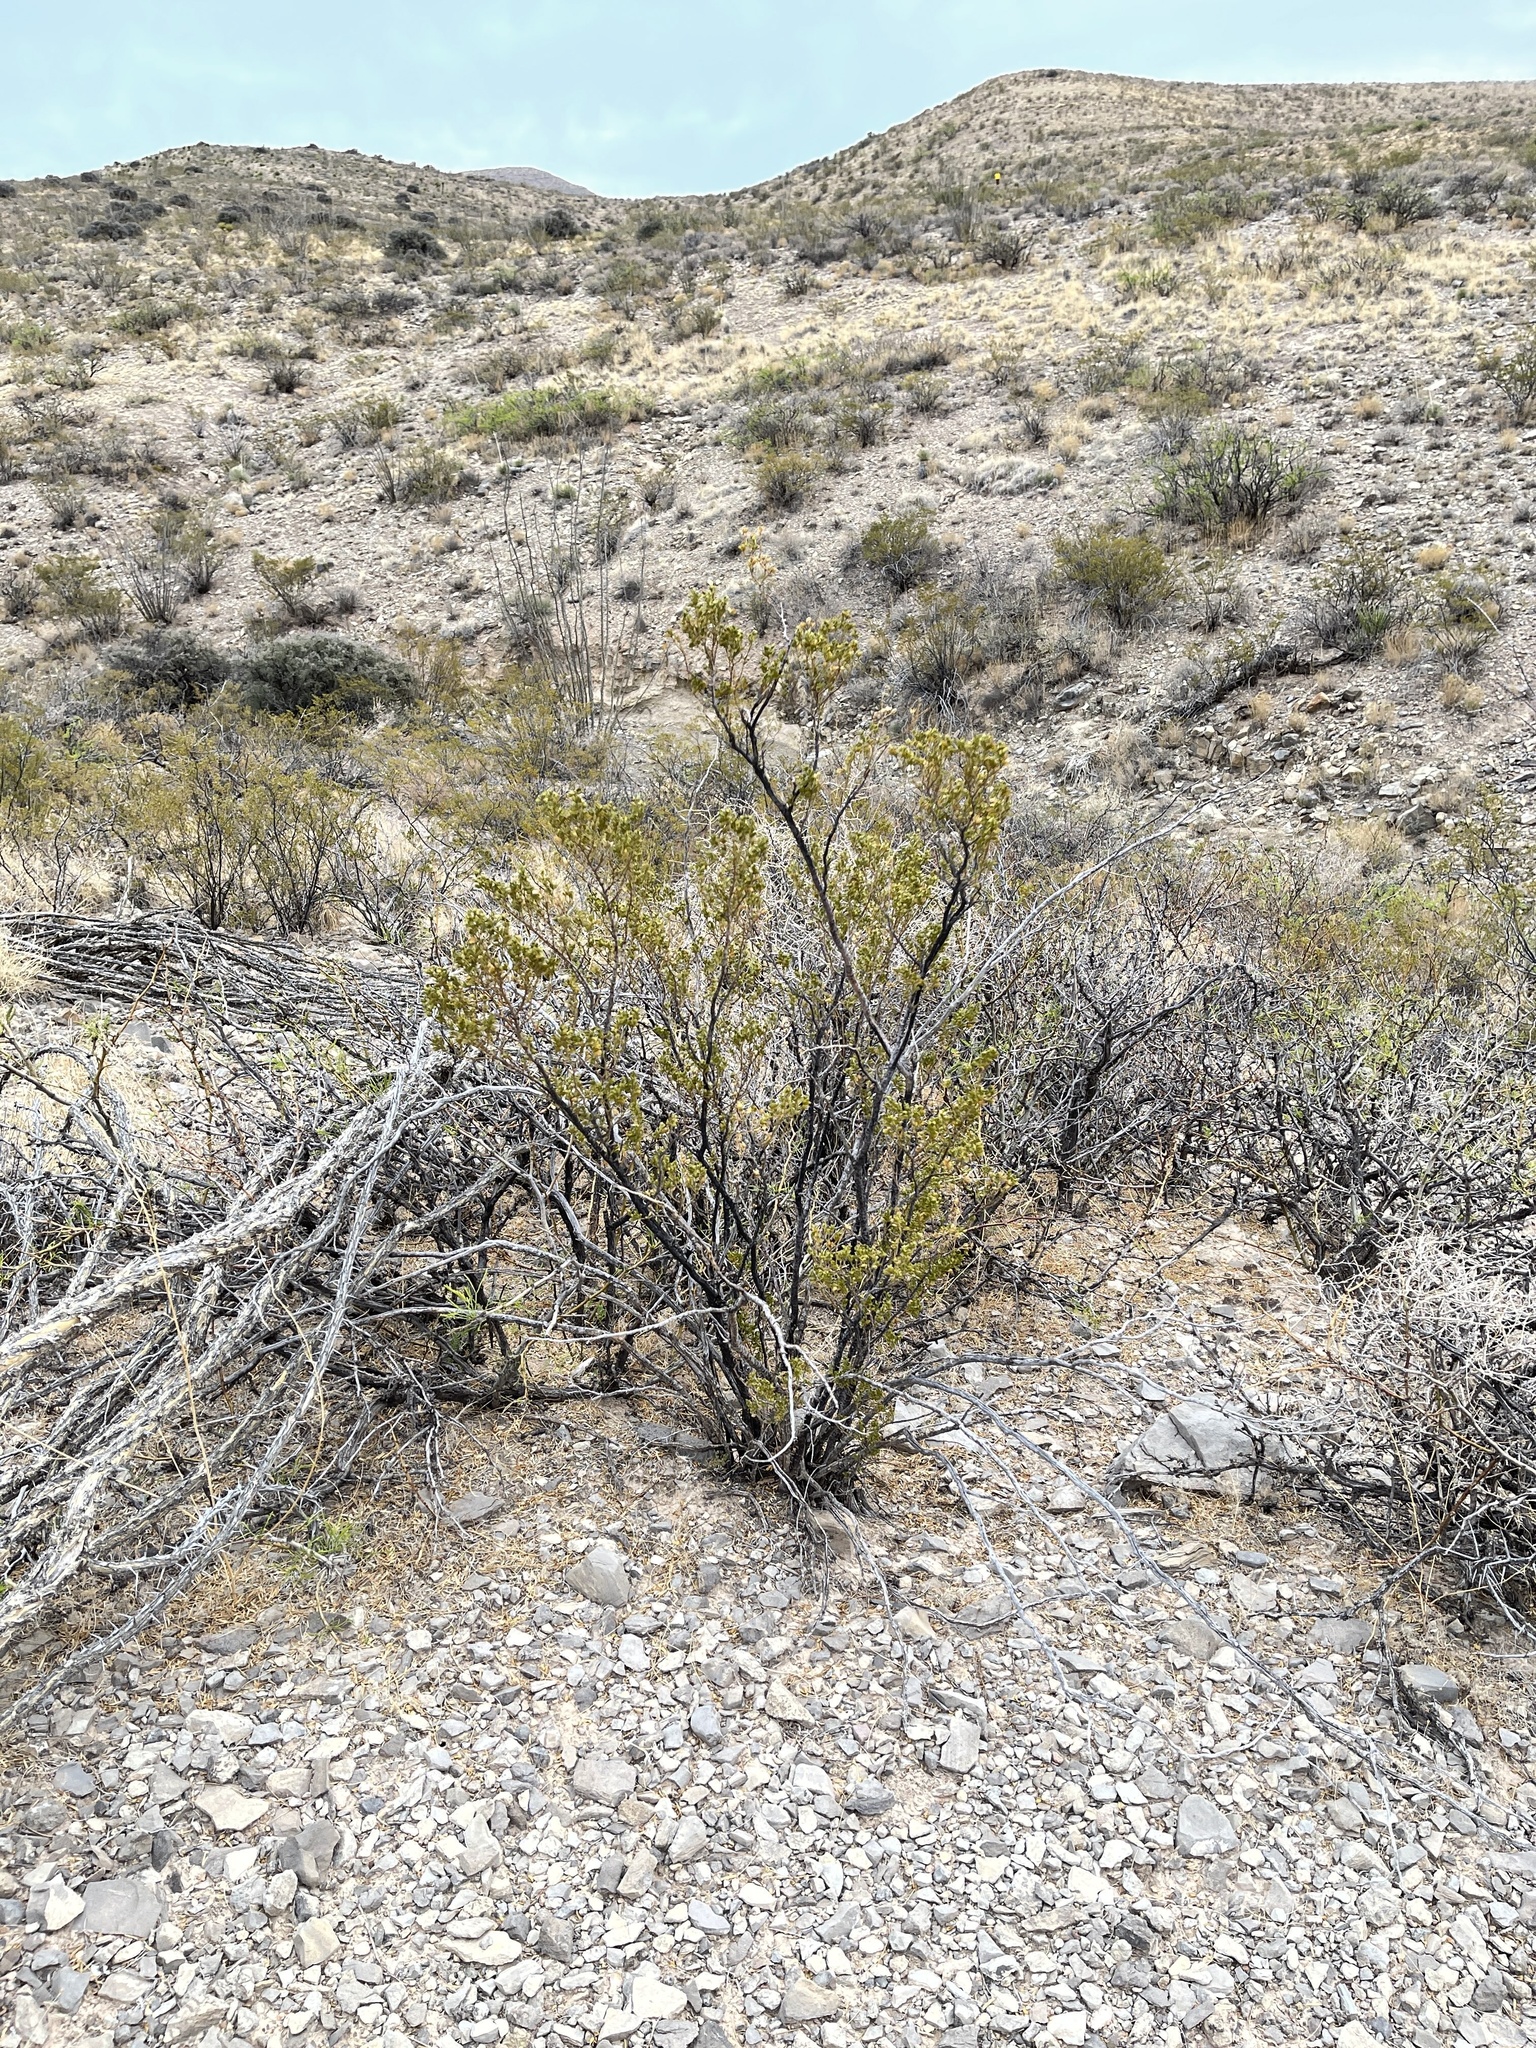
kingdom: Plantae
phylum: Tracheophyta
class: Magnoliopsida
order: Zygophyllales
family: Zygophyllaceae
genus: Larrea
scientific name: Larrea tridentata
